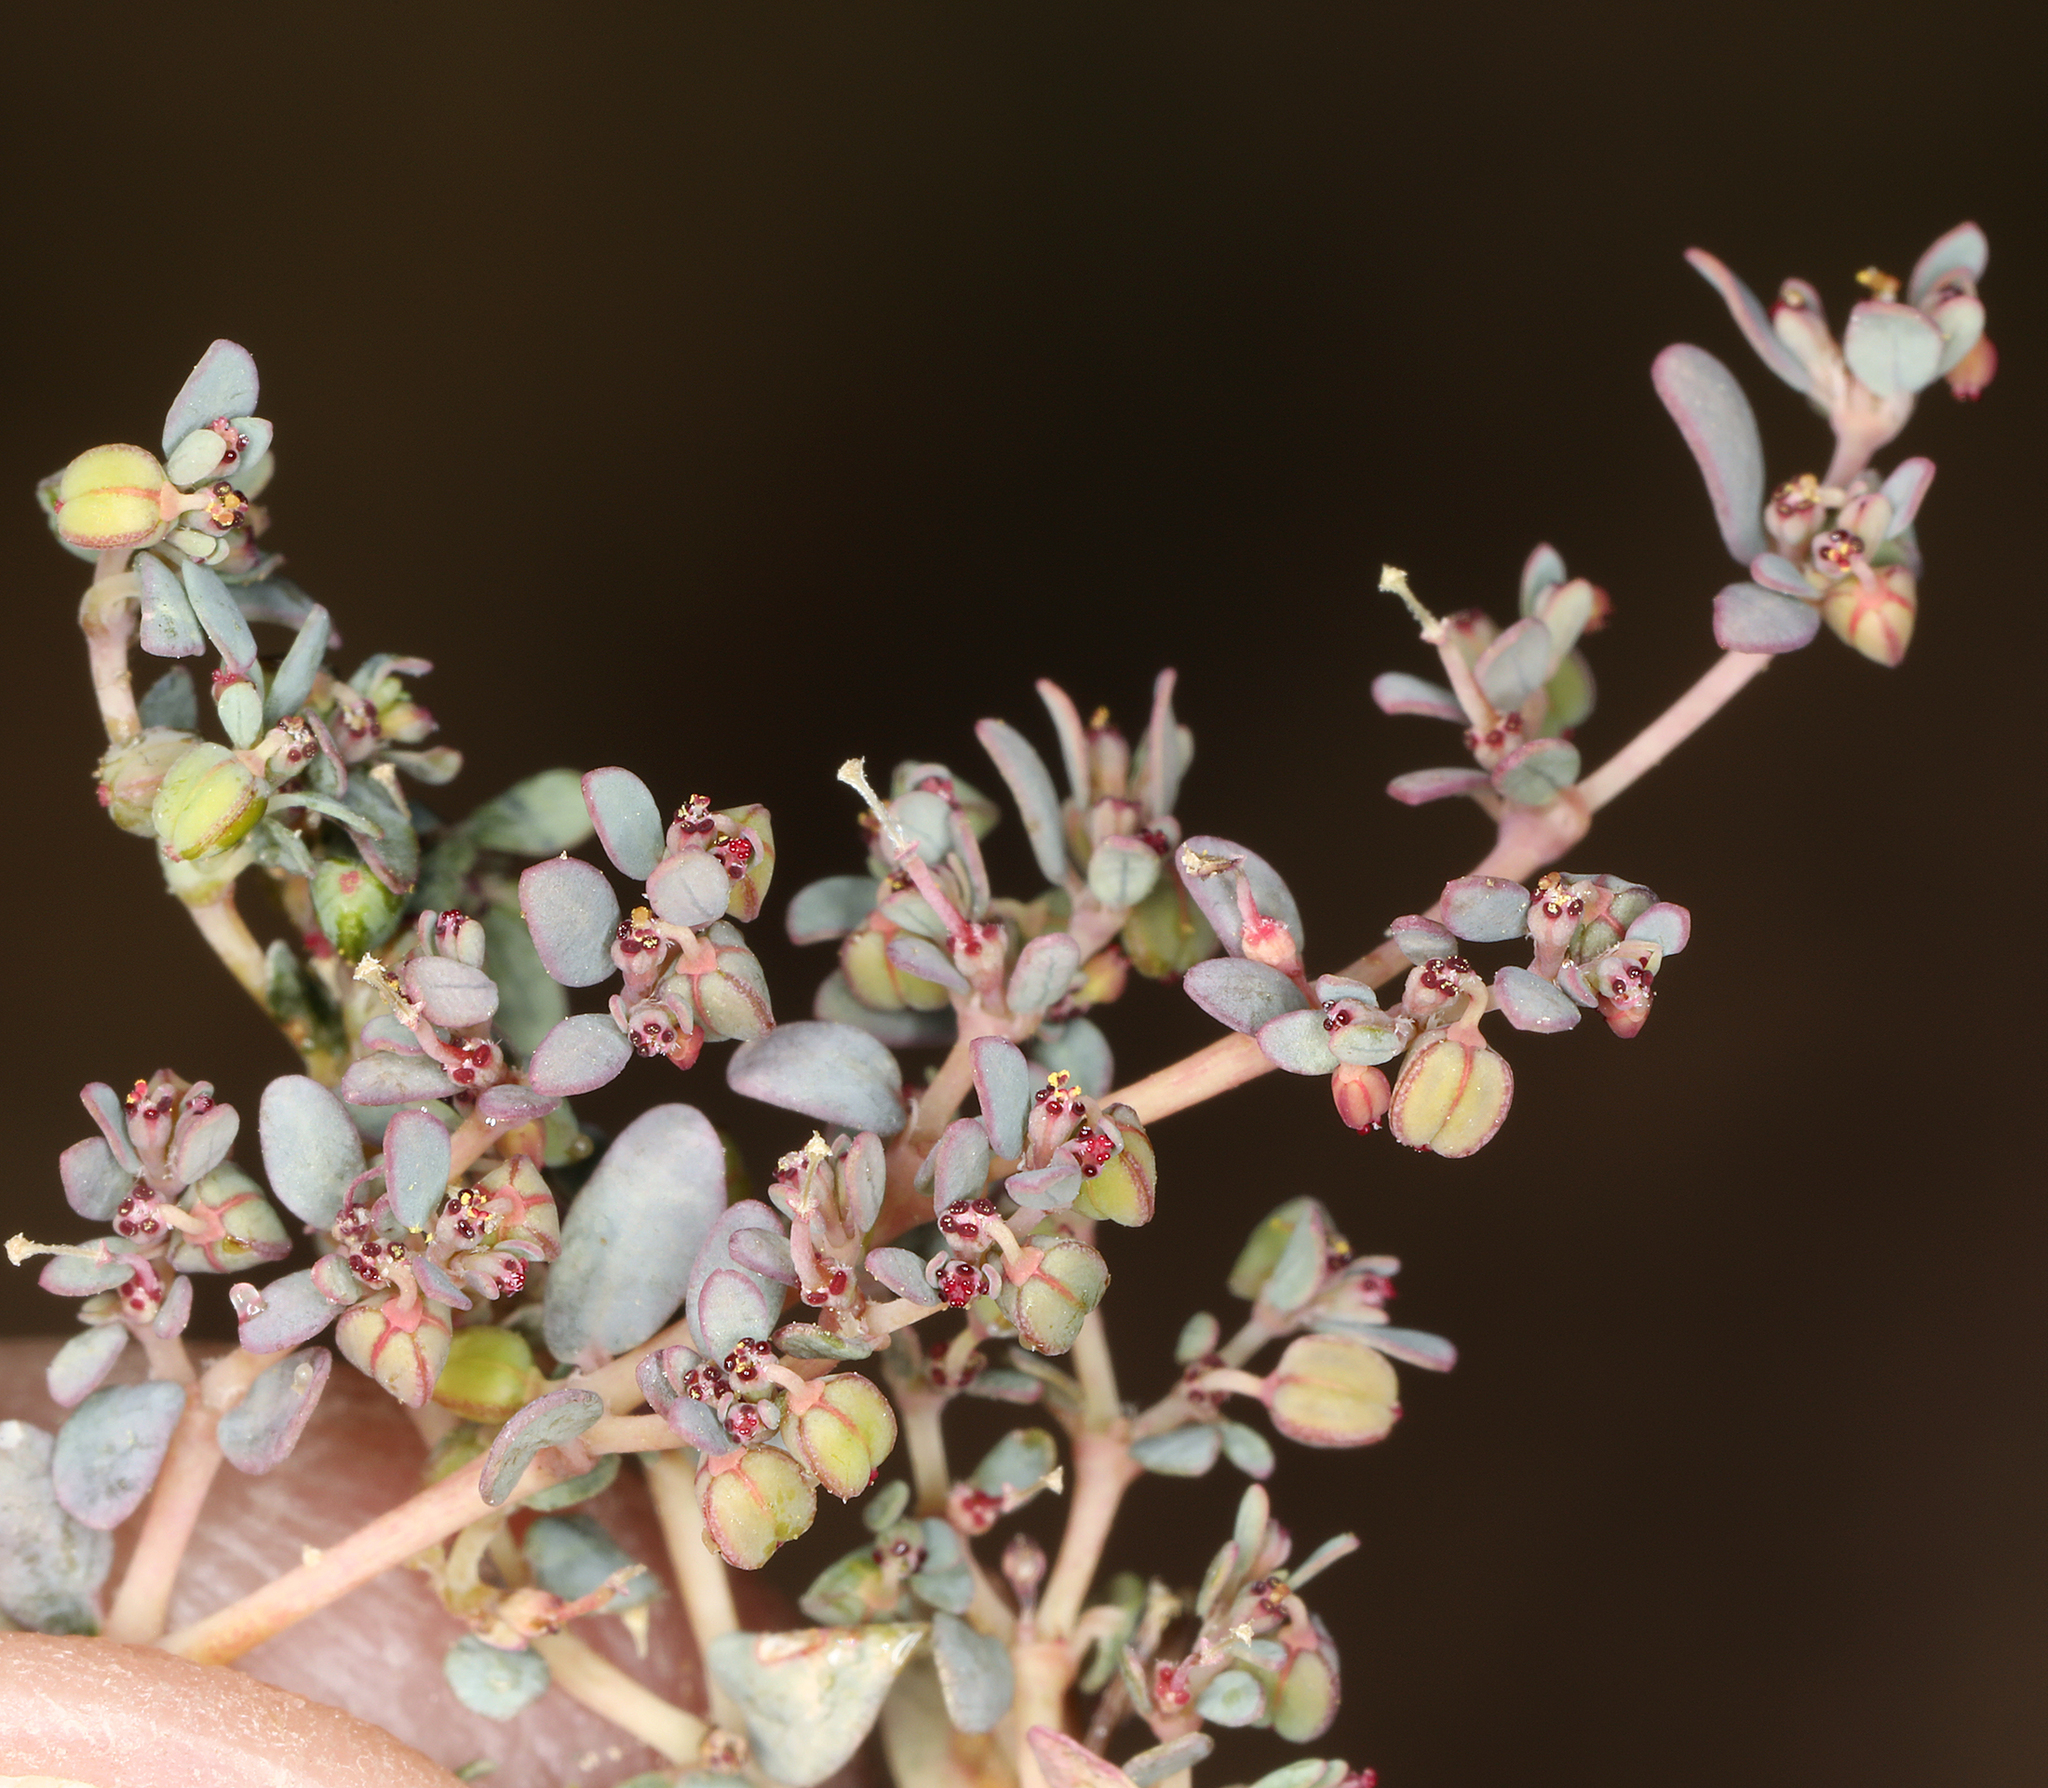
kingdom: Plantae
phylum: Tracheophyta
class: Magnoliopsida
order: Malpighiales
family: Euphorbiaceae
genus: Euphorbia
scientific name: Euphorbia micromera
